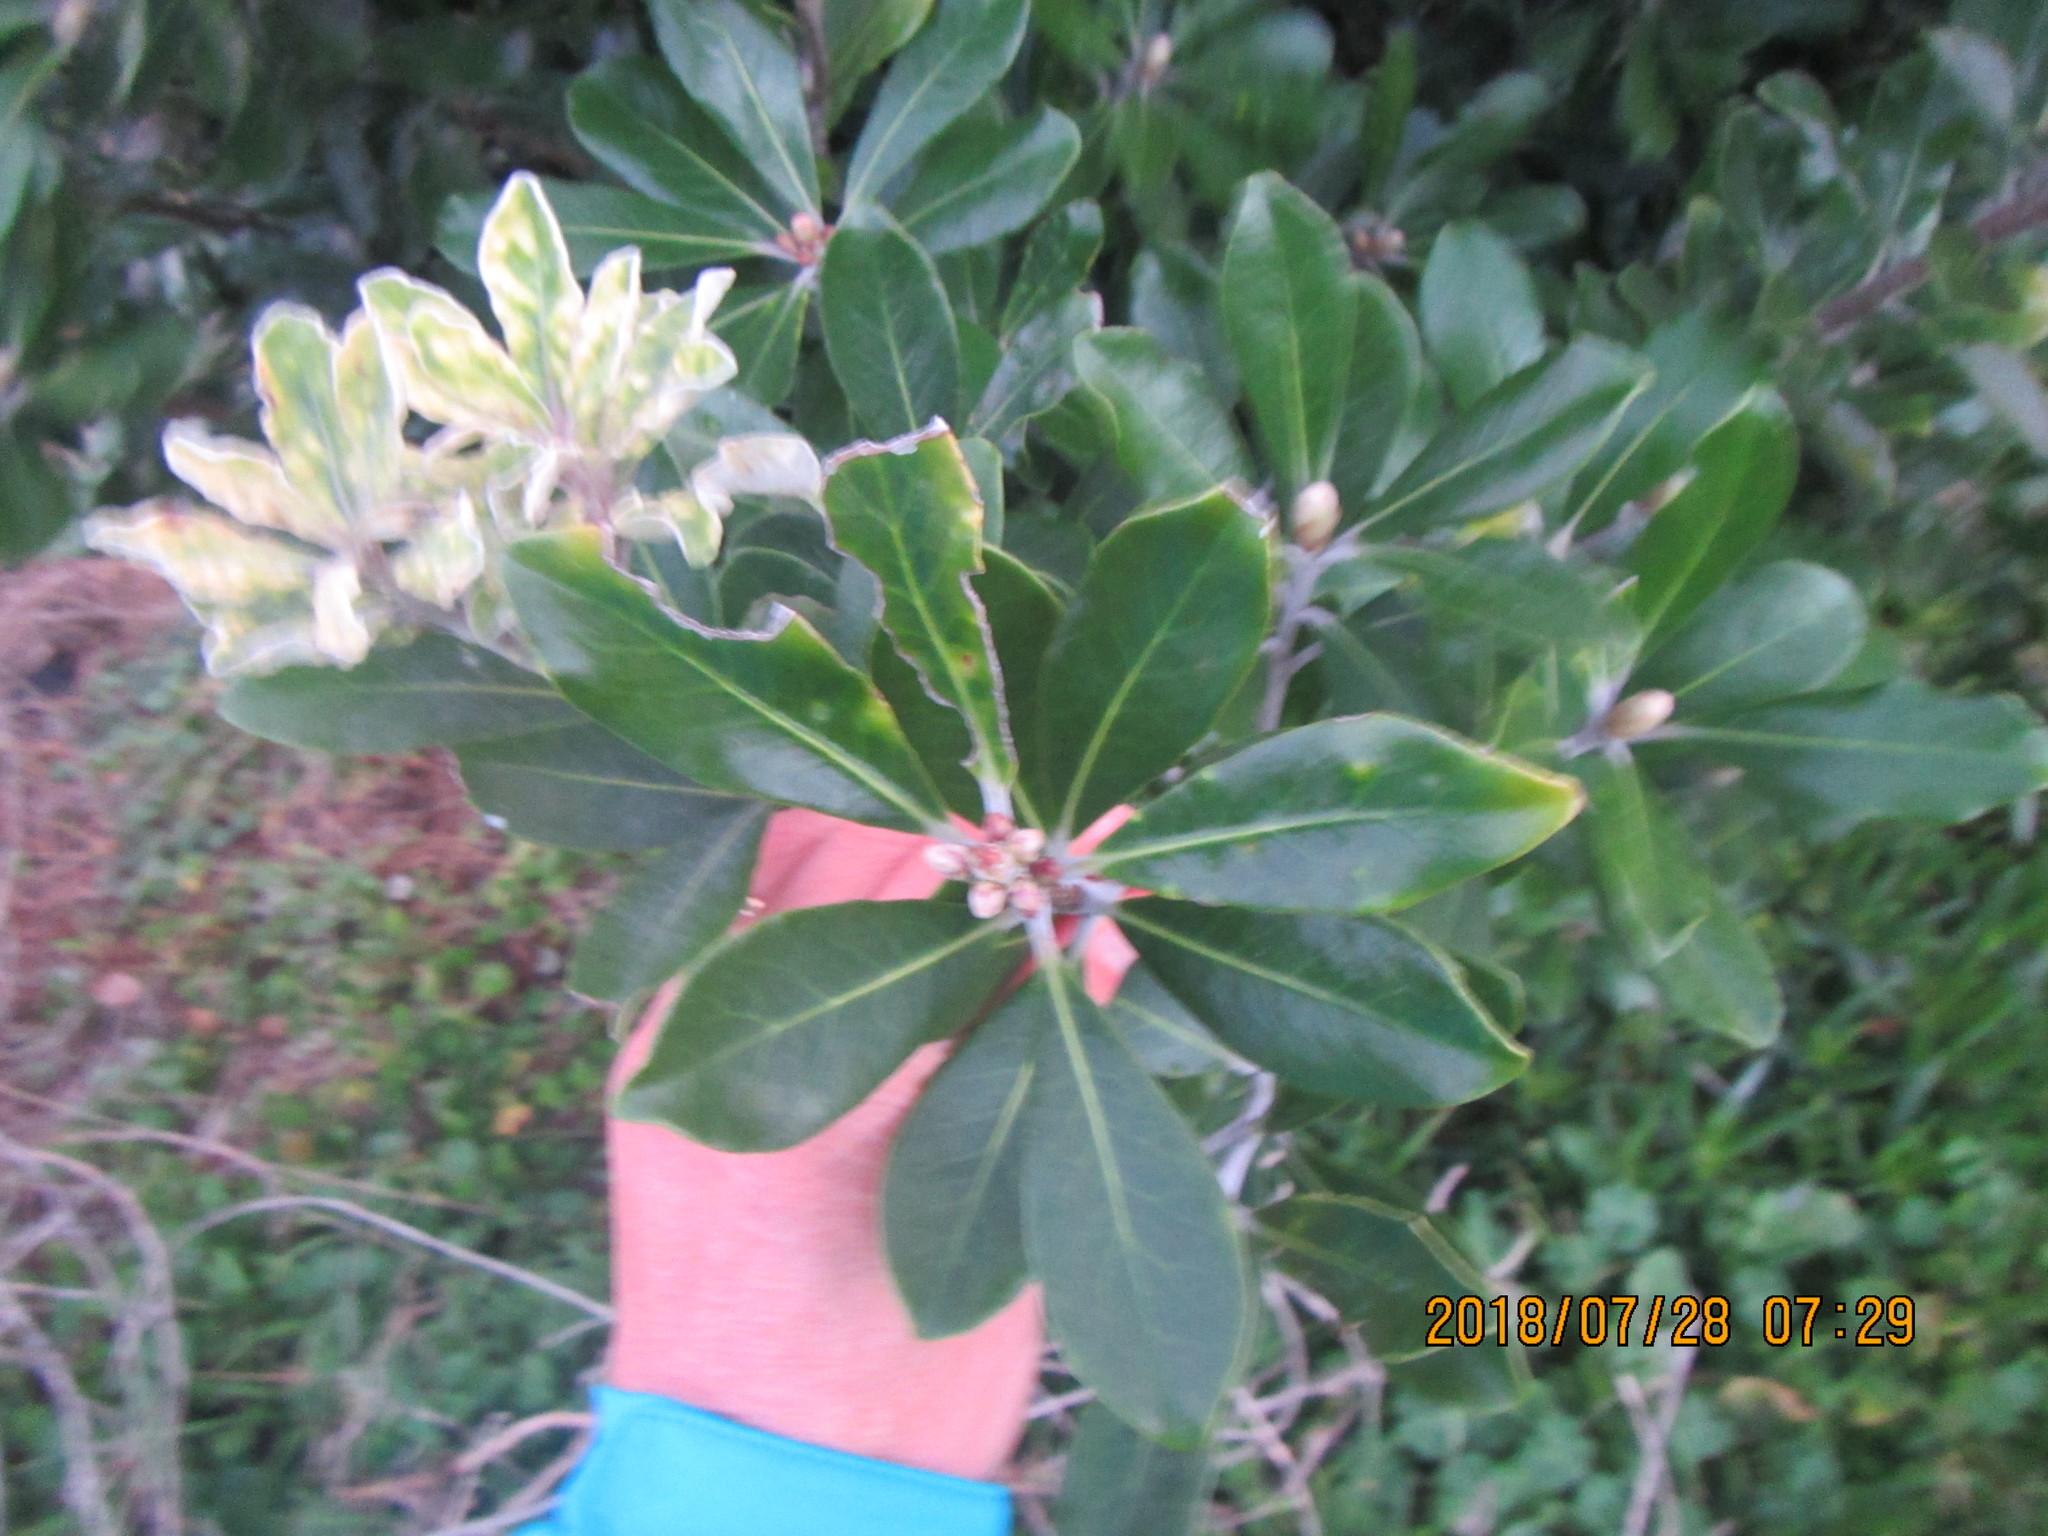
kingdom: Plantae
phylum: Tracheophyta
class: Magnoliopsida
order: Apiales
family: Pittosporaceae
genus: Pittosporum
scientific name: Pittosporum crassifolium
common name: Karo
